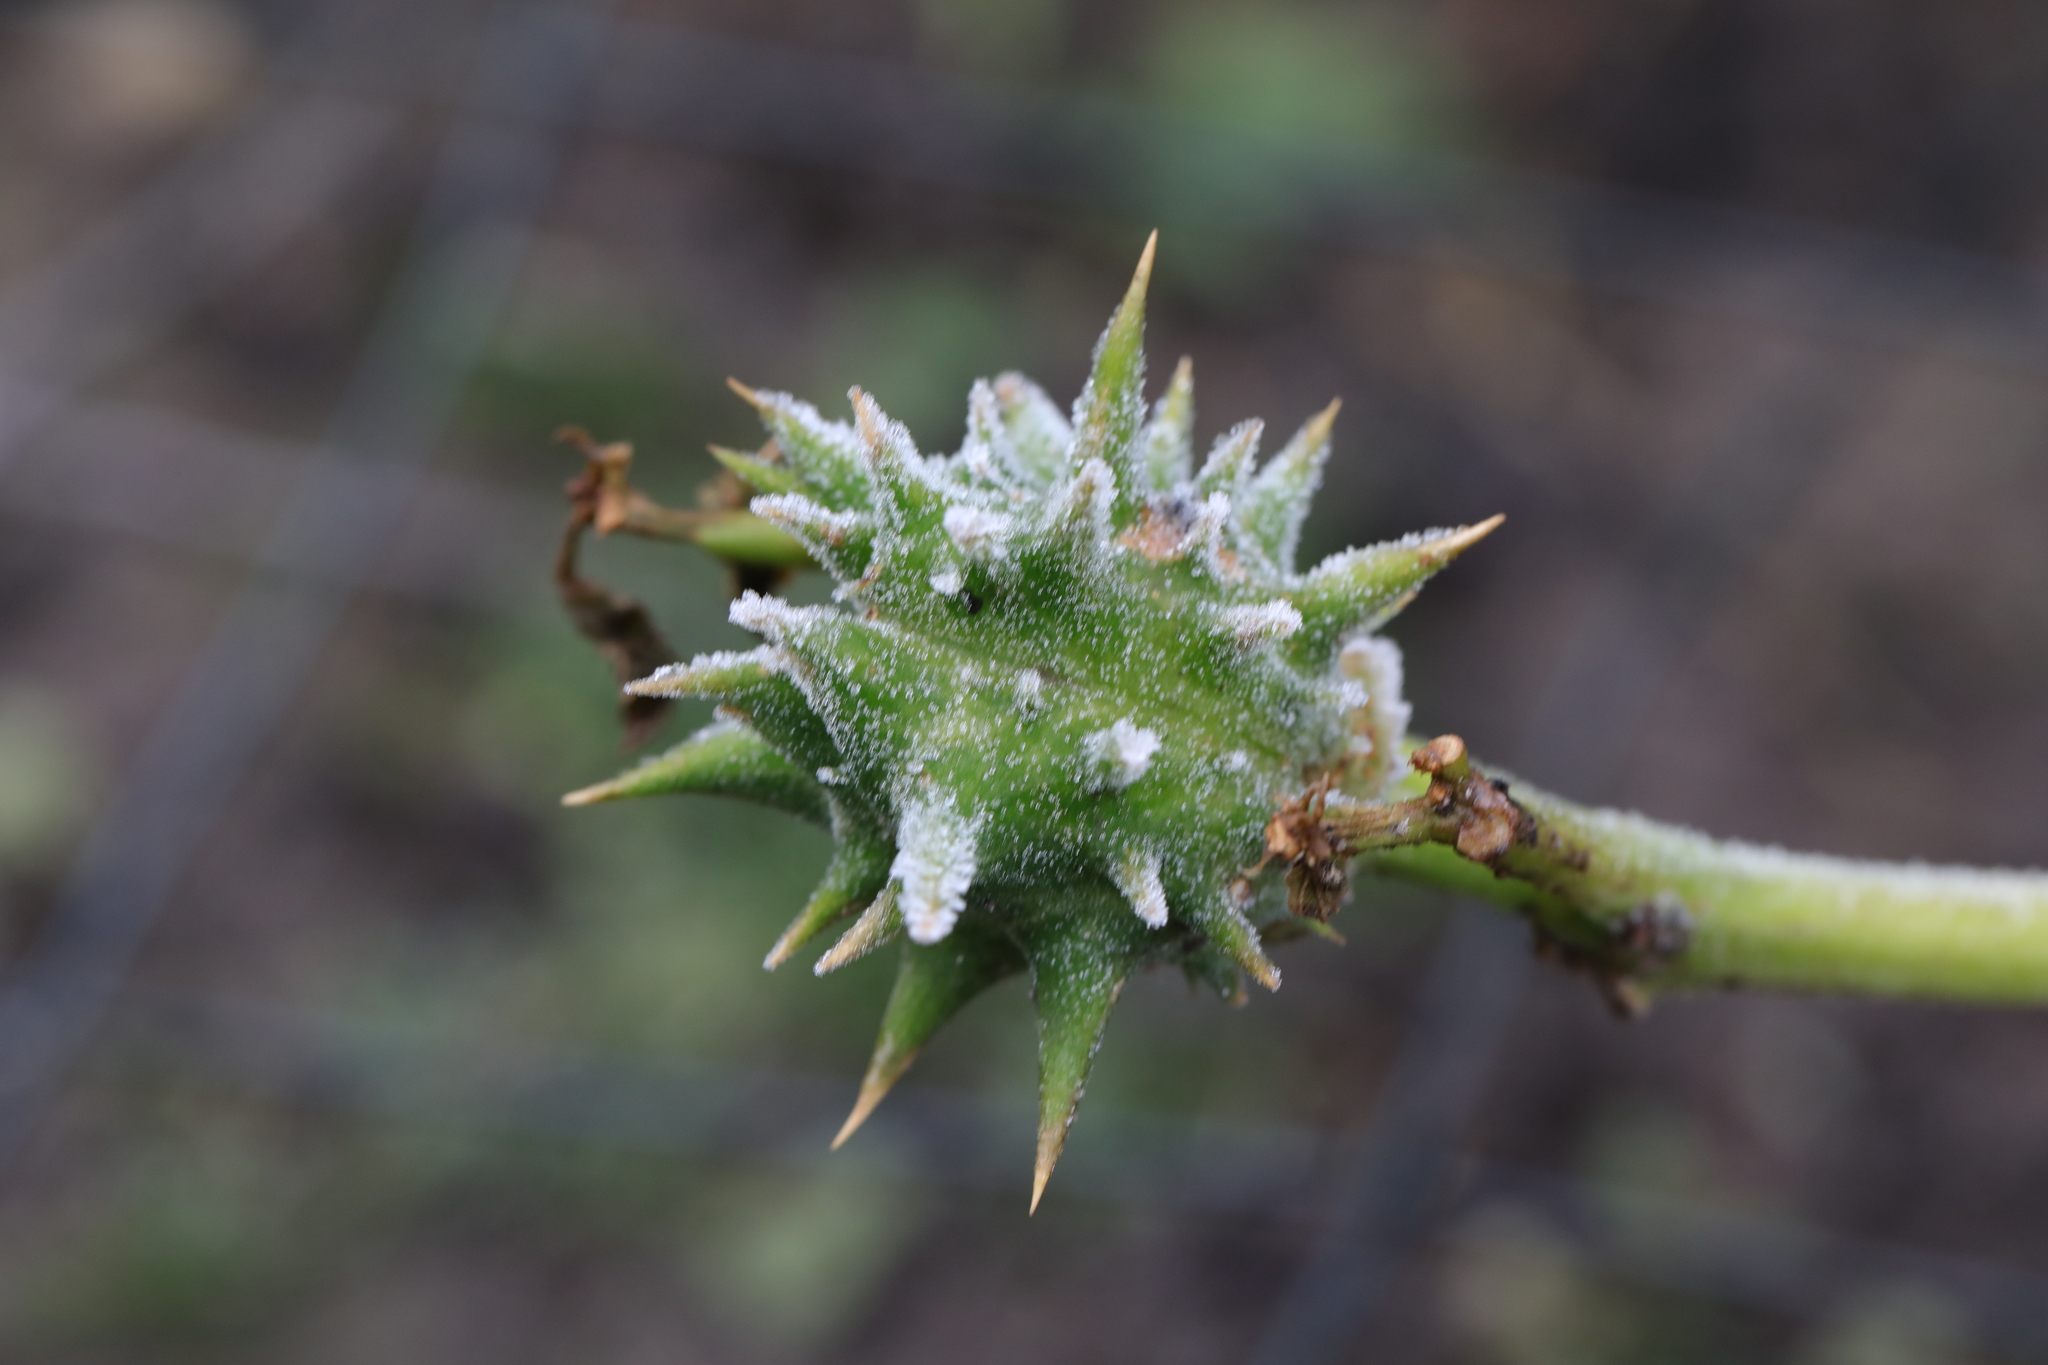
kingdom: Plantae
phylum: Tracheophyta
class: Magnoliopsida
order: Solanales
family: Solanaceae
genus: Datura
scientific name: Datura ferox
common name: Angel's-trumpets
